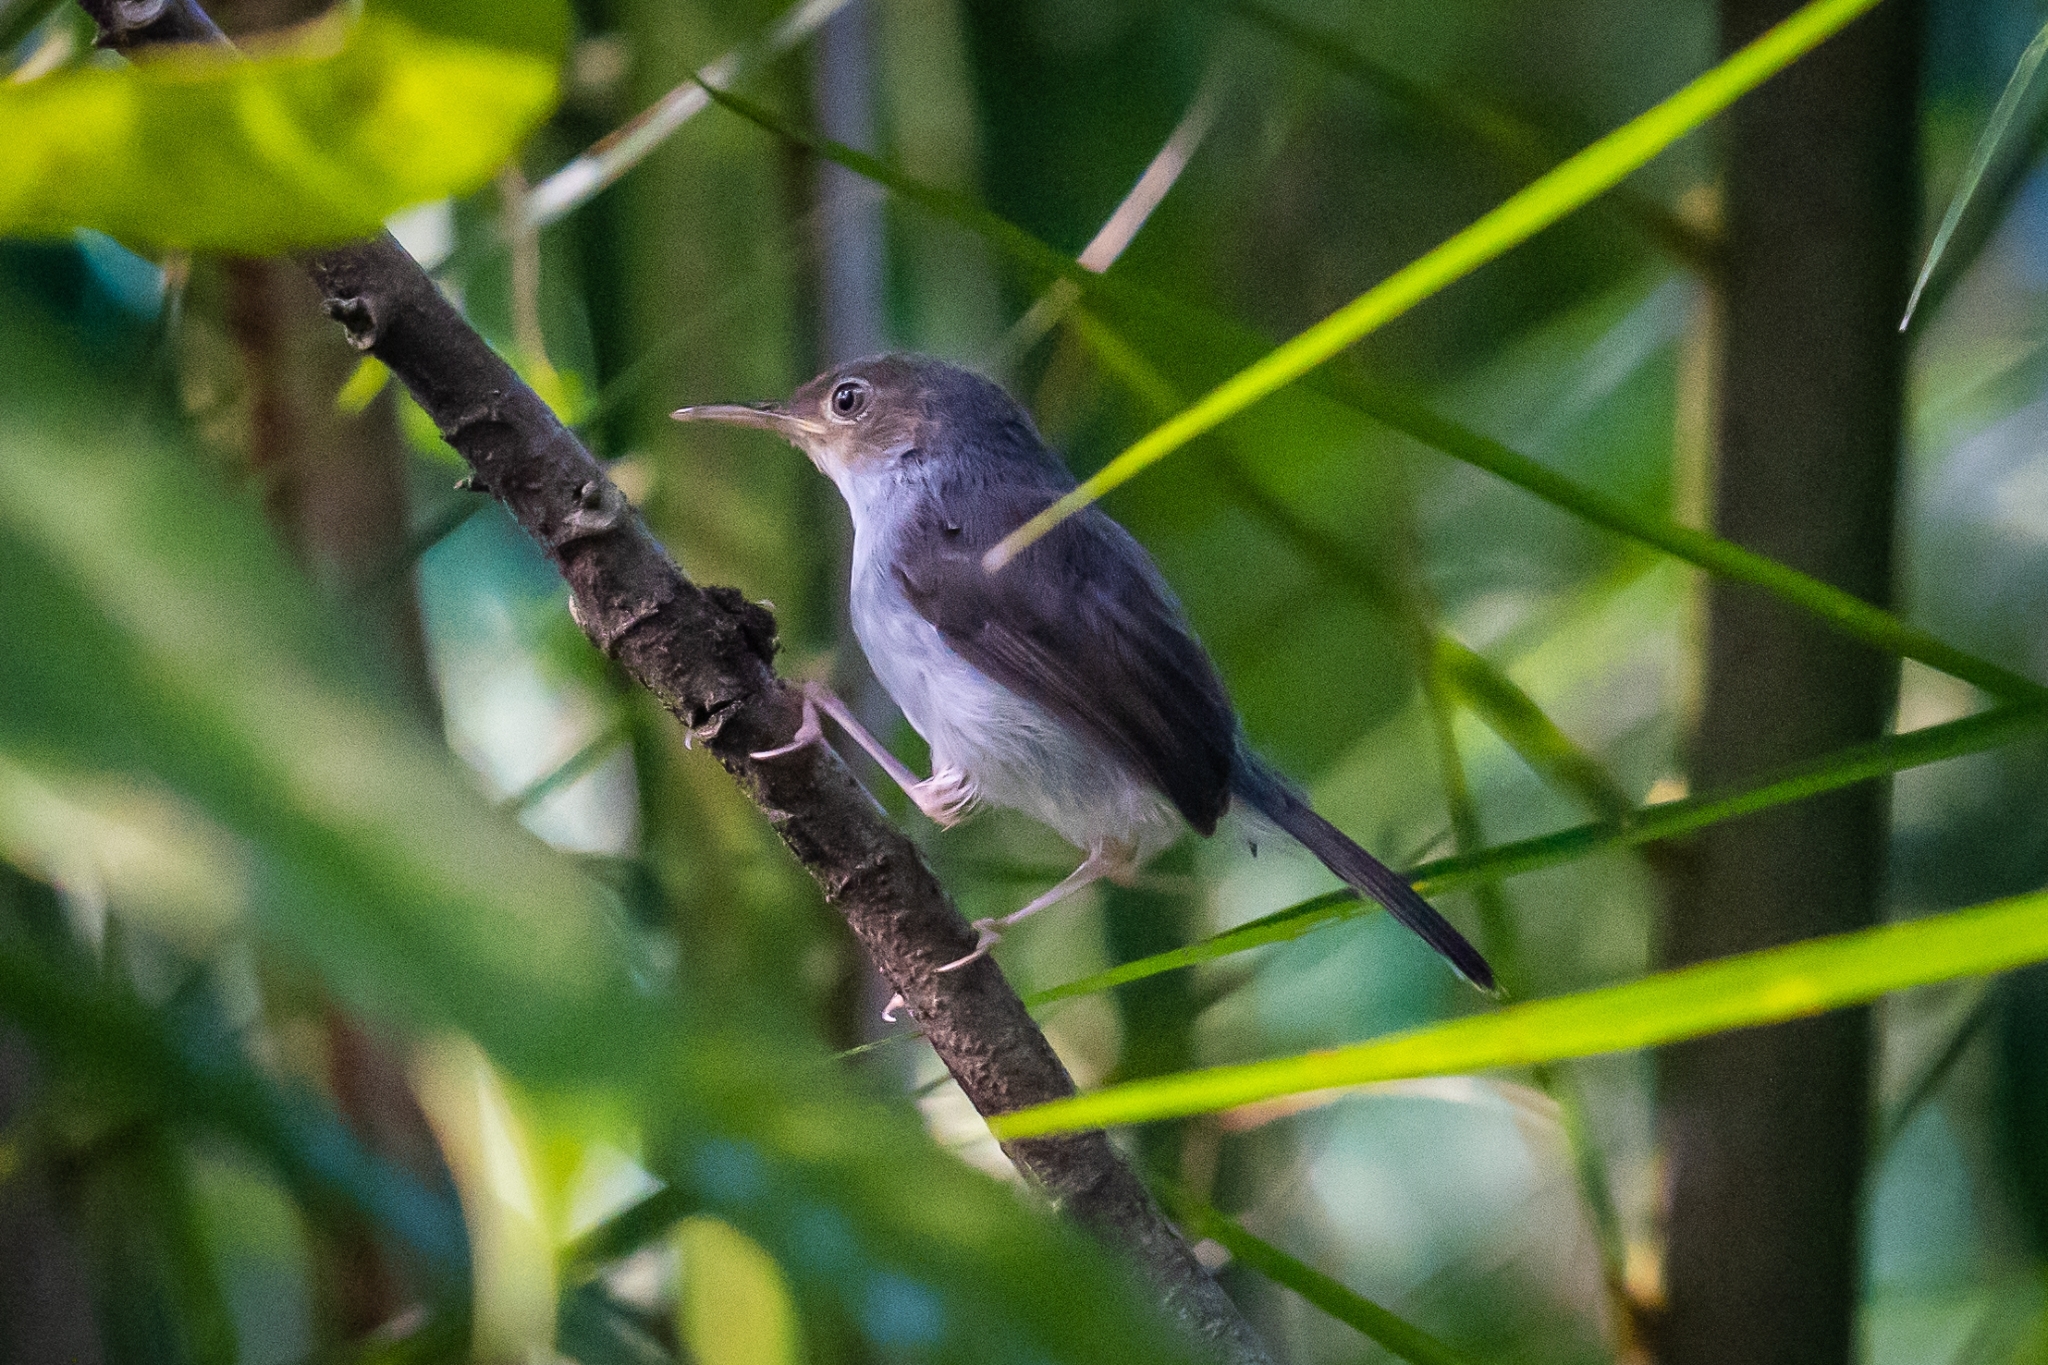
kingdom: Animalia
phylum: Chordata
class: Aves
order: Passeriformes
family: Cisticolidae
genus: Orthotomus
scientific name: Orthotomus ruficeps
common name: Ashy tailorbird
